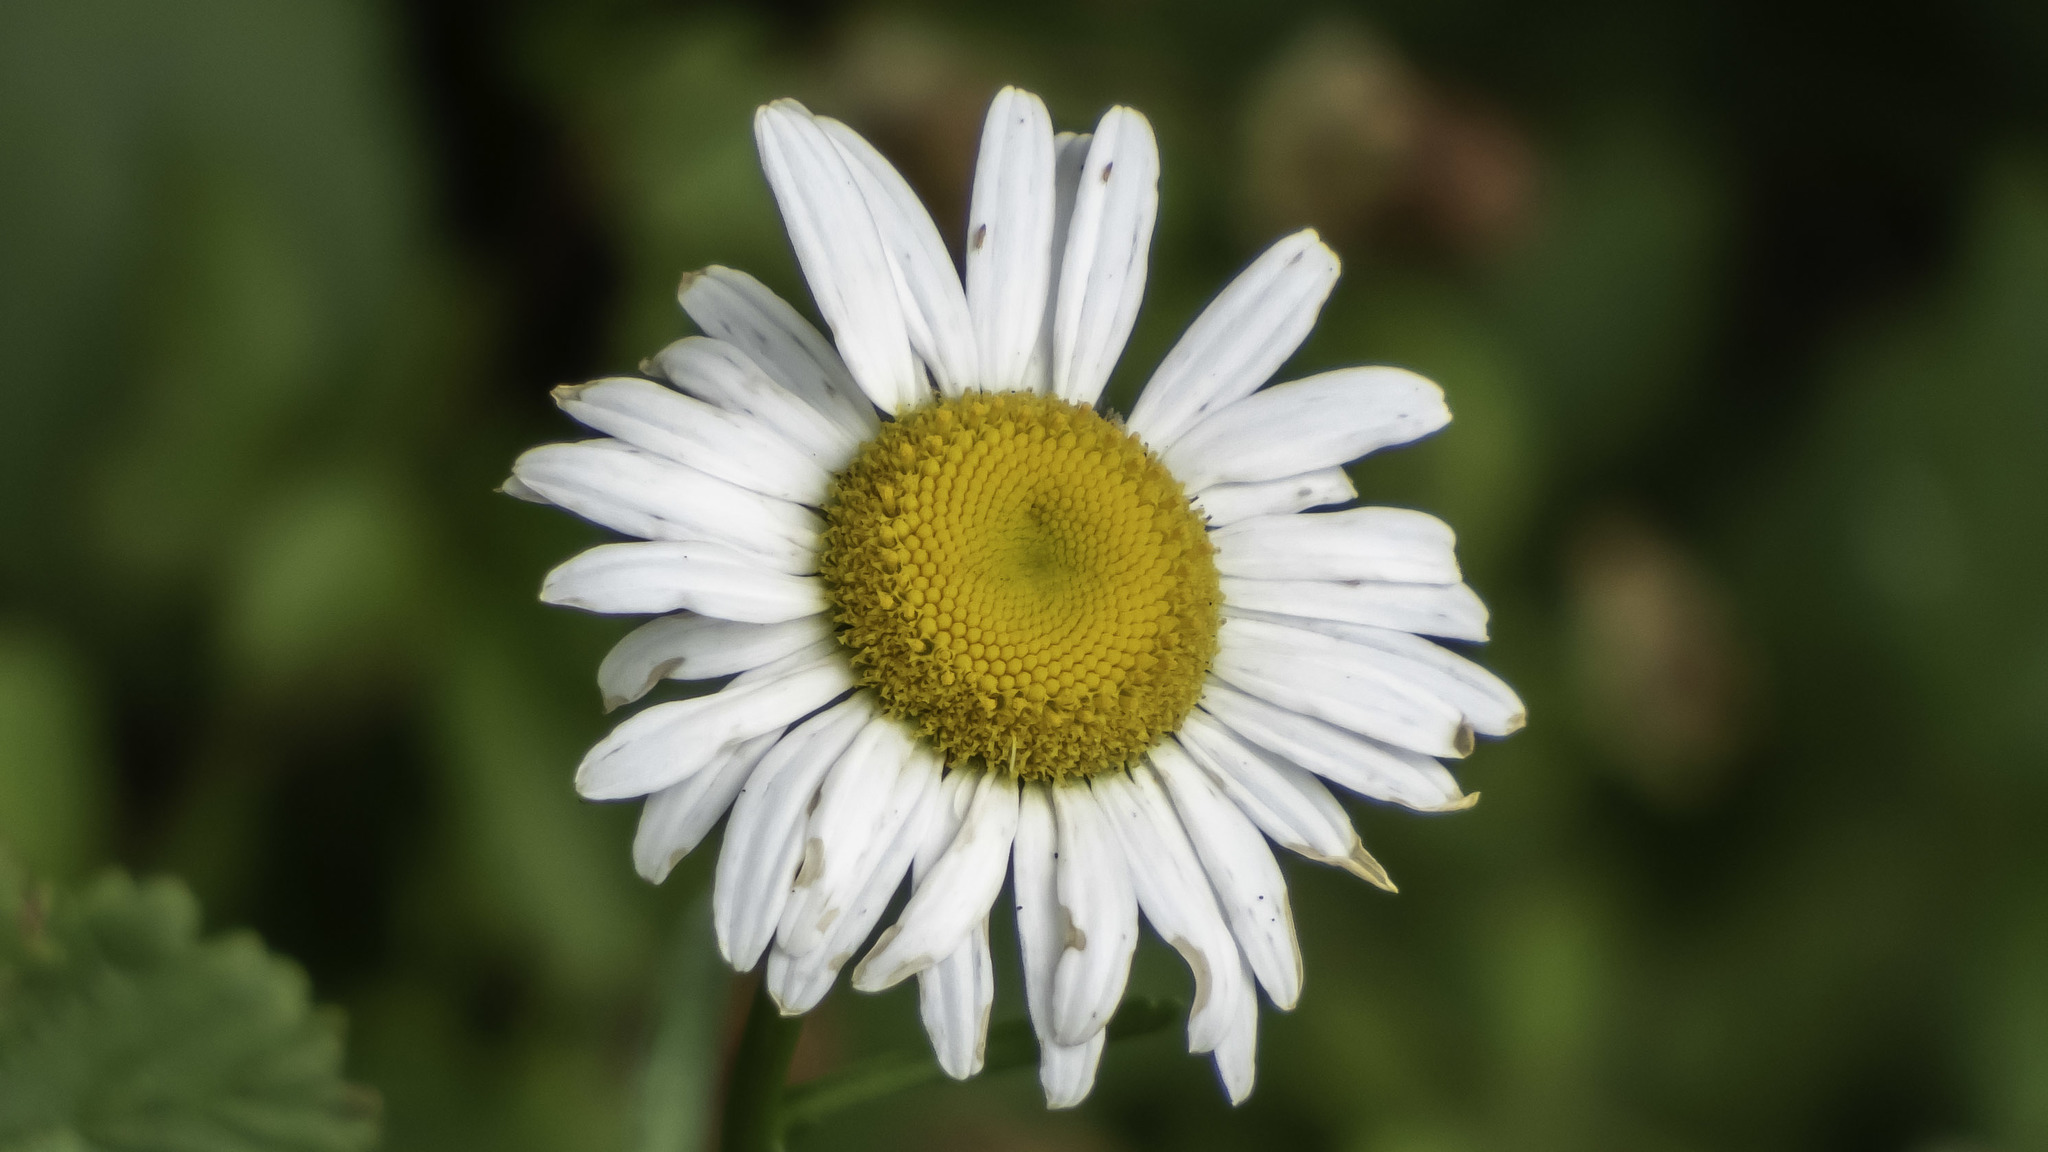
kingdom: Plantae
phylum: Tracheophyta
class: Magnoliopsida
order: Asterales
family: Asteraceae
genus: Leucanthemum
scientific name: Leucanthemum vulgare
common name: Oxeye daisy
